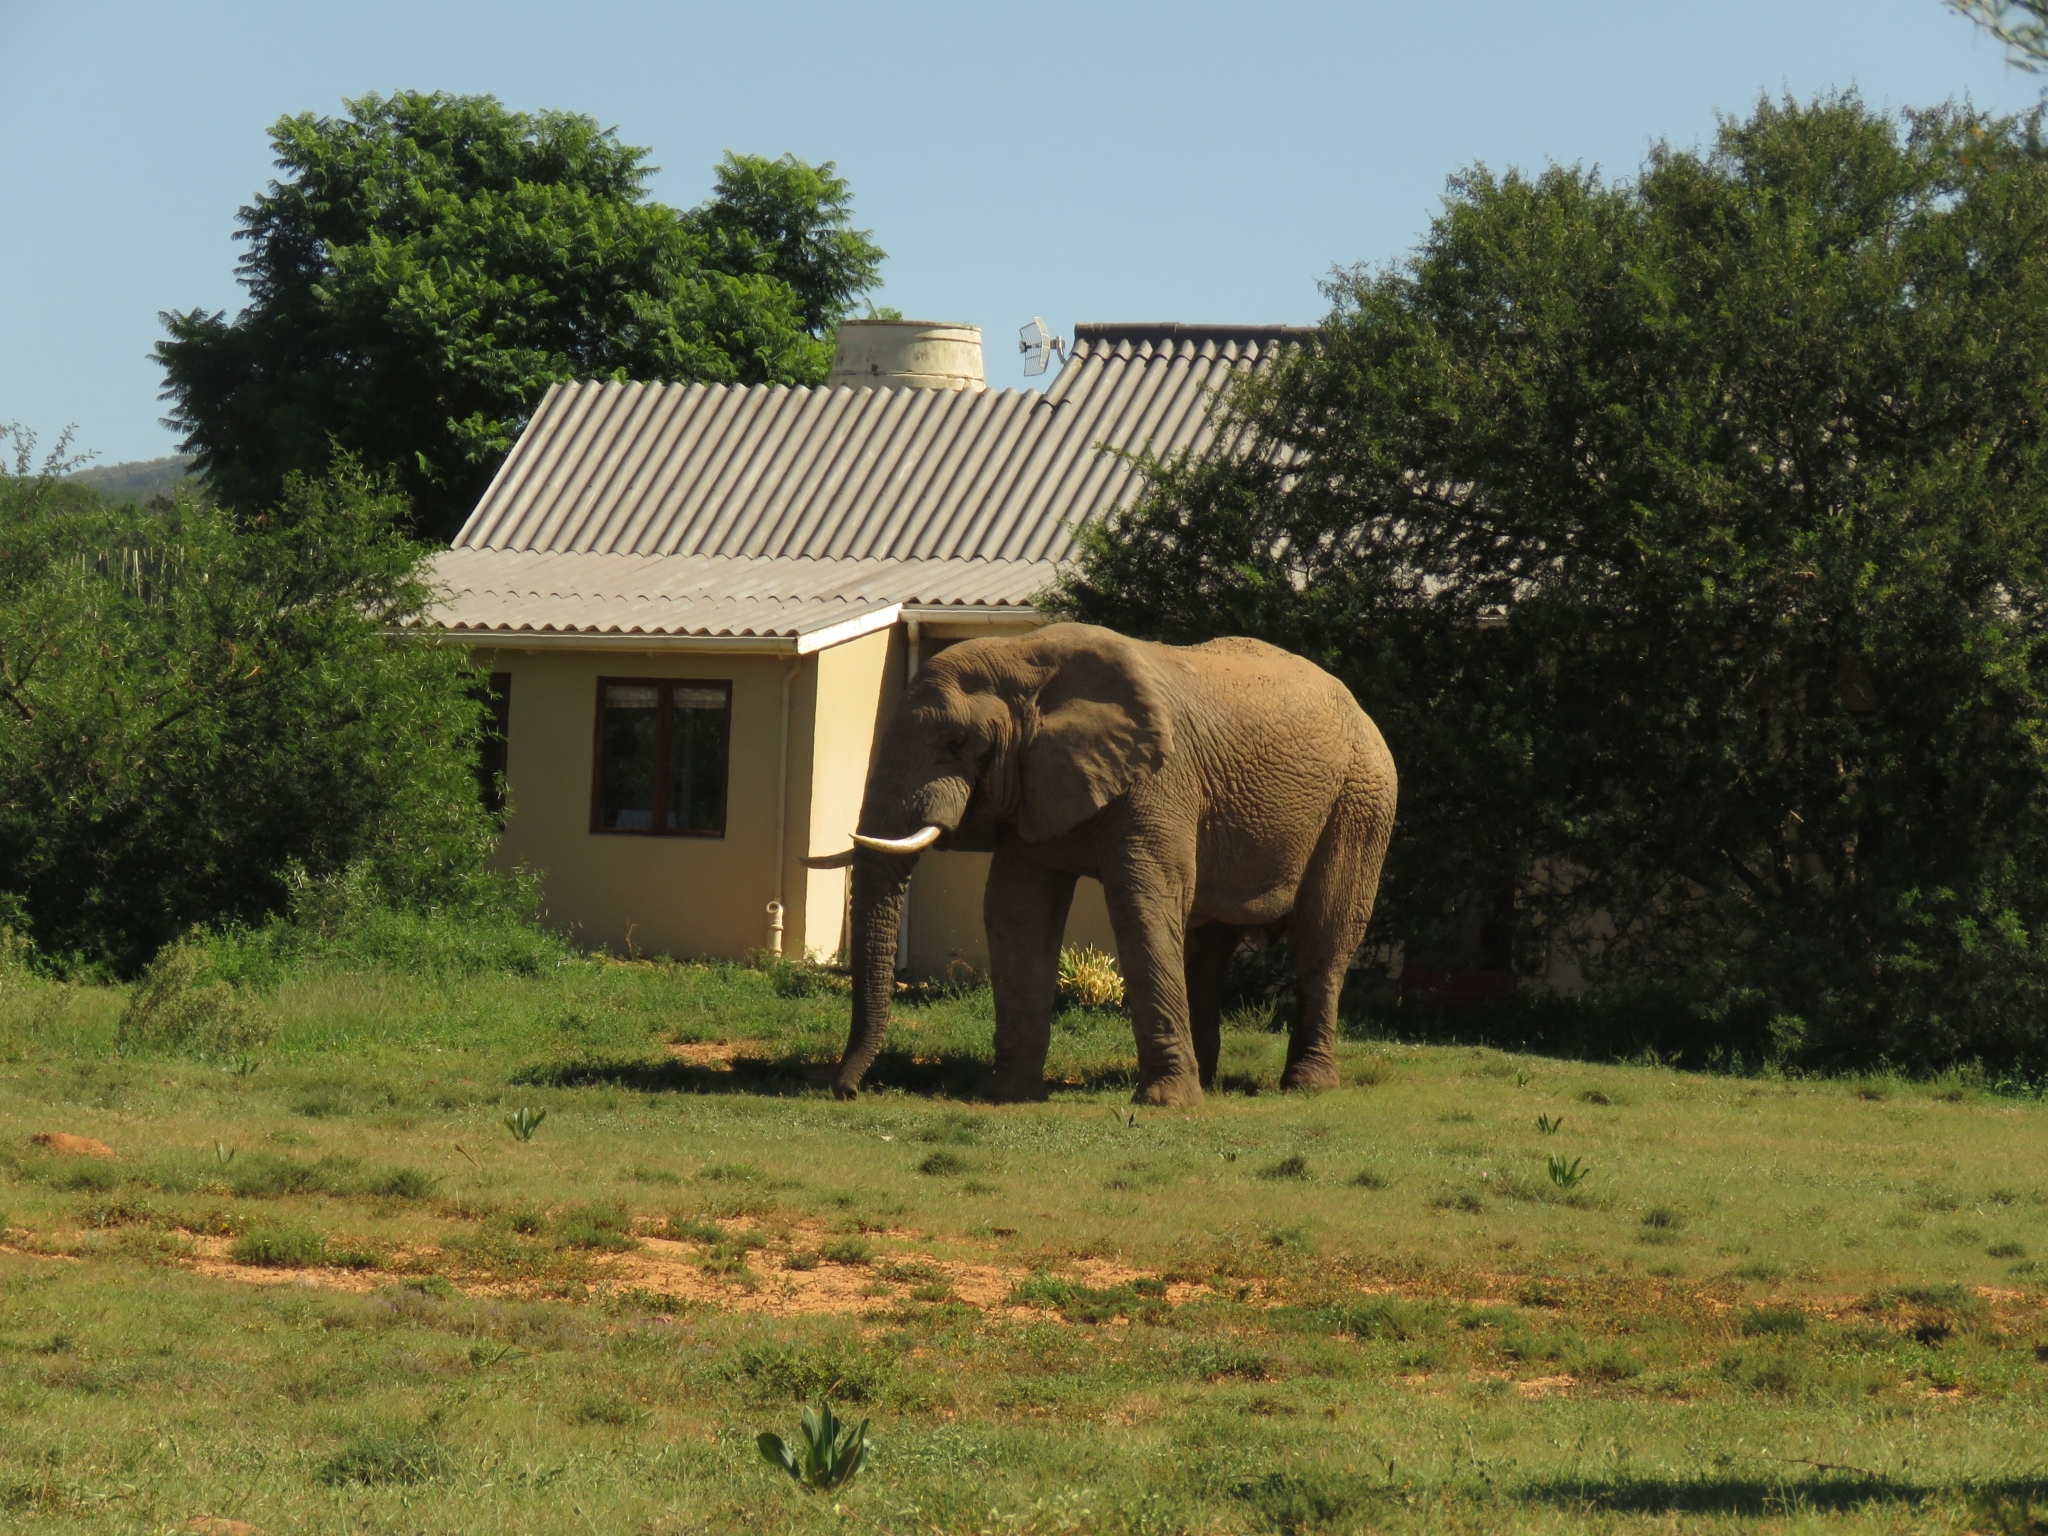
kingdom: Animalia
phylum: Chordata
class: Mammalia
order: Proboscidea
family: Elephantidae
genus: Loxodonta
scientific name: Loxodonta africana
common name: African elephant
